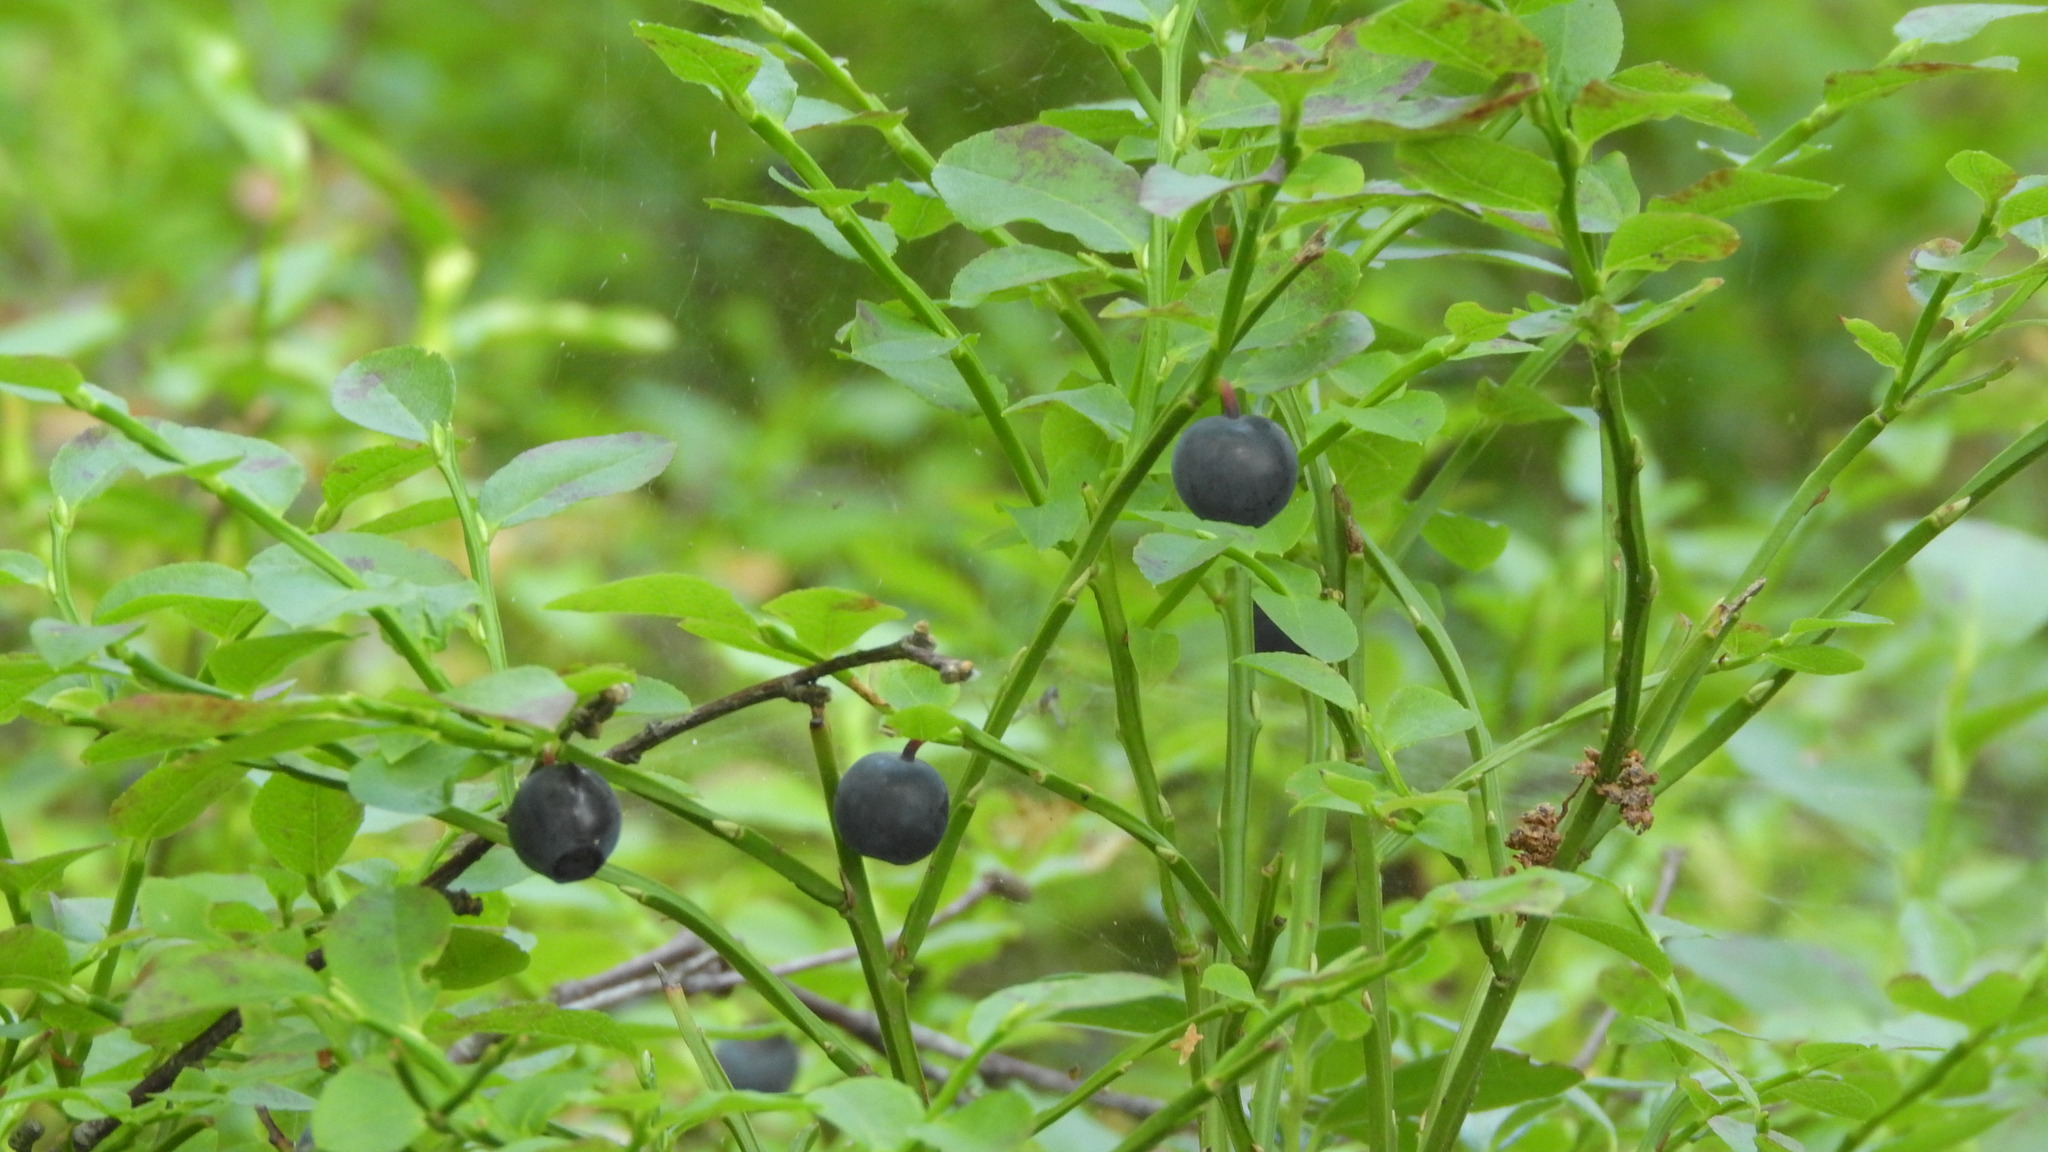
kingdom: Plantae
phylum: Tracheophyta
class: Magnoliopsida
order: Ericales
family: Ericaceae
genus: Vaccinium
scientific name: Vaccinium myrtillus
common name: Bilberry
